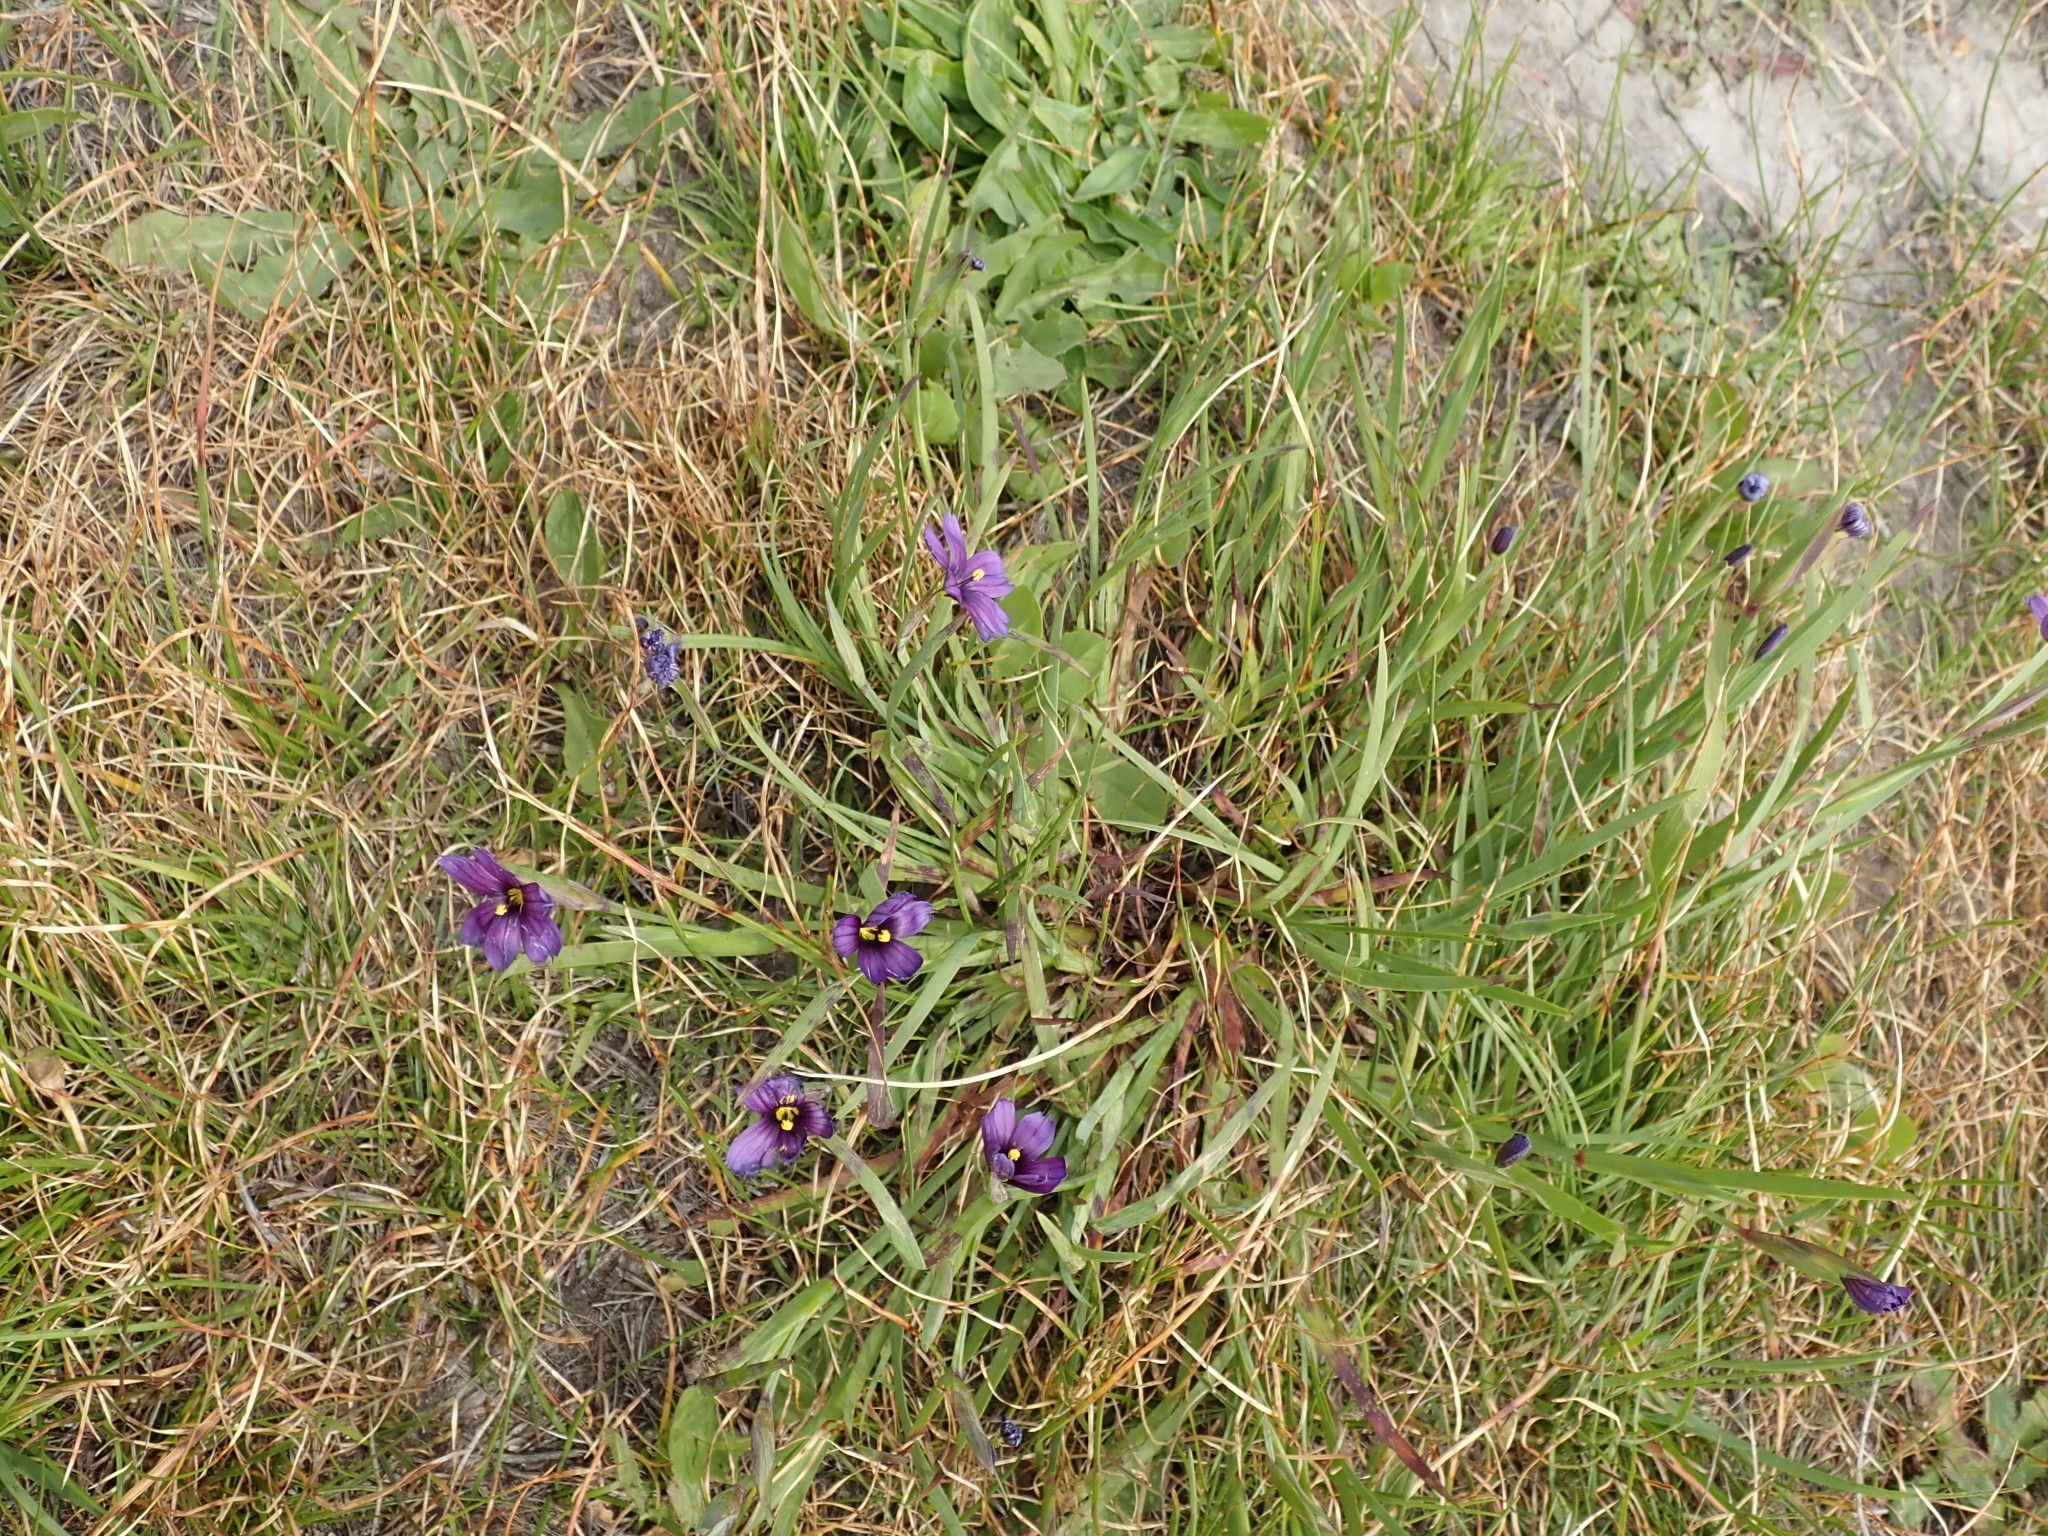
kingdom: Plantae
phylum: Tracheophyta
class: Liliopsida
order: Asparagales
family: Iridaceae
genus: Sisyrinchium
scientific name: Sisyrinchium bellum
